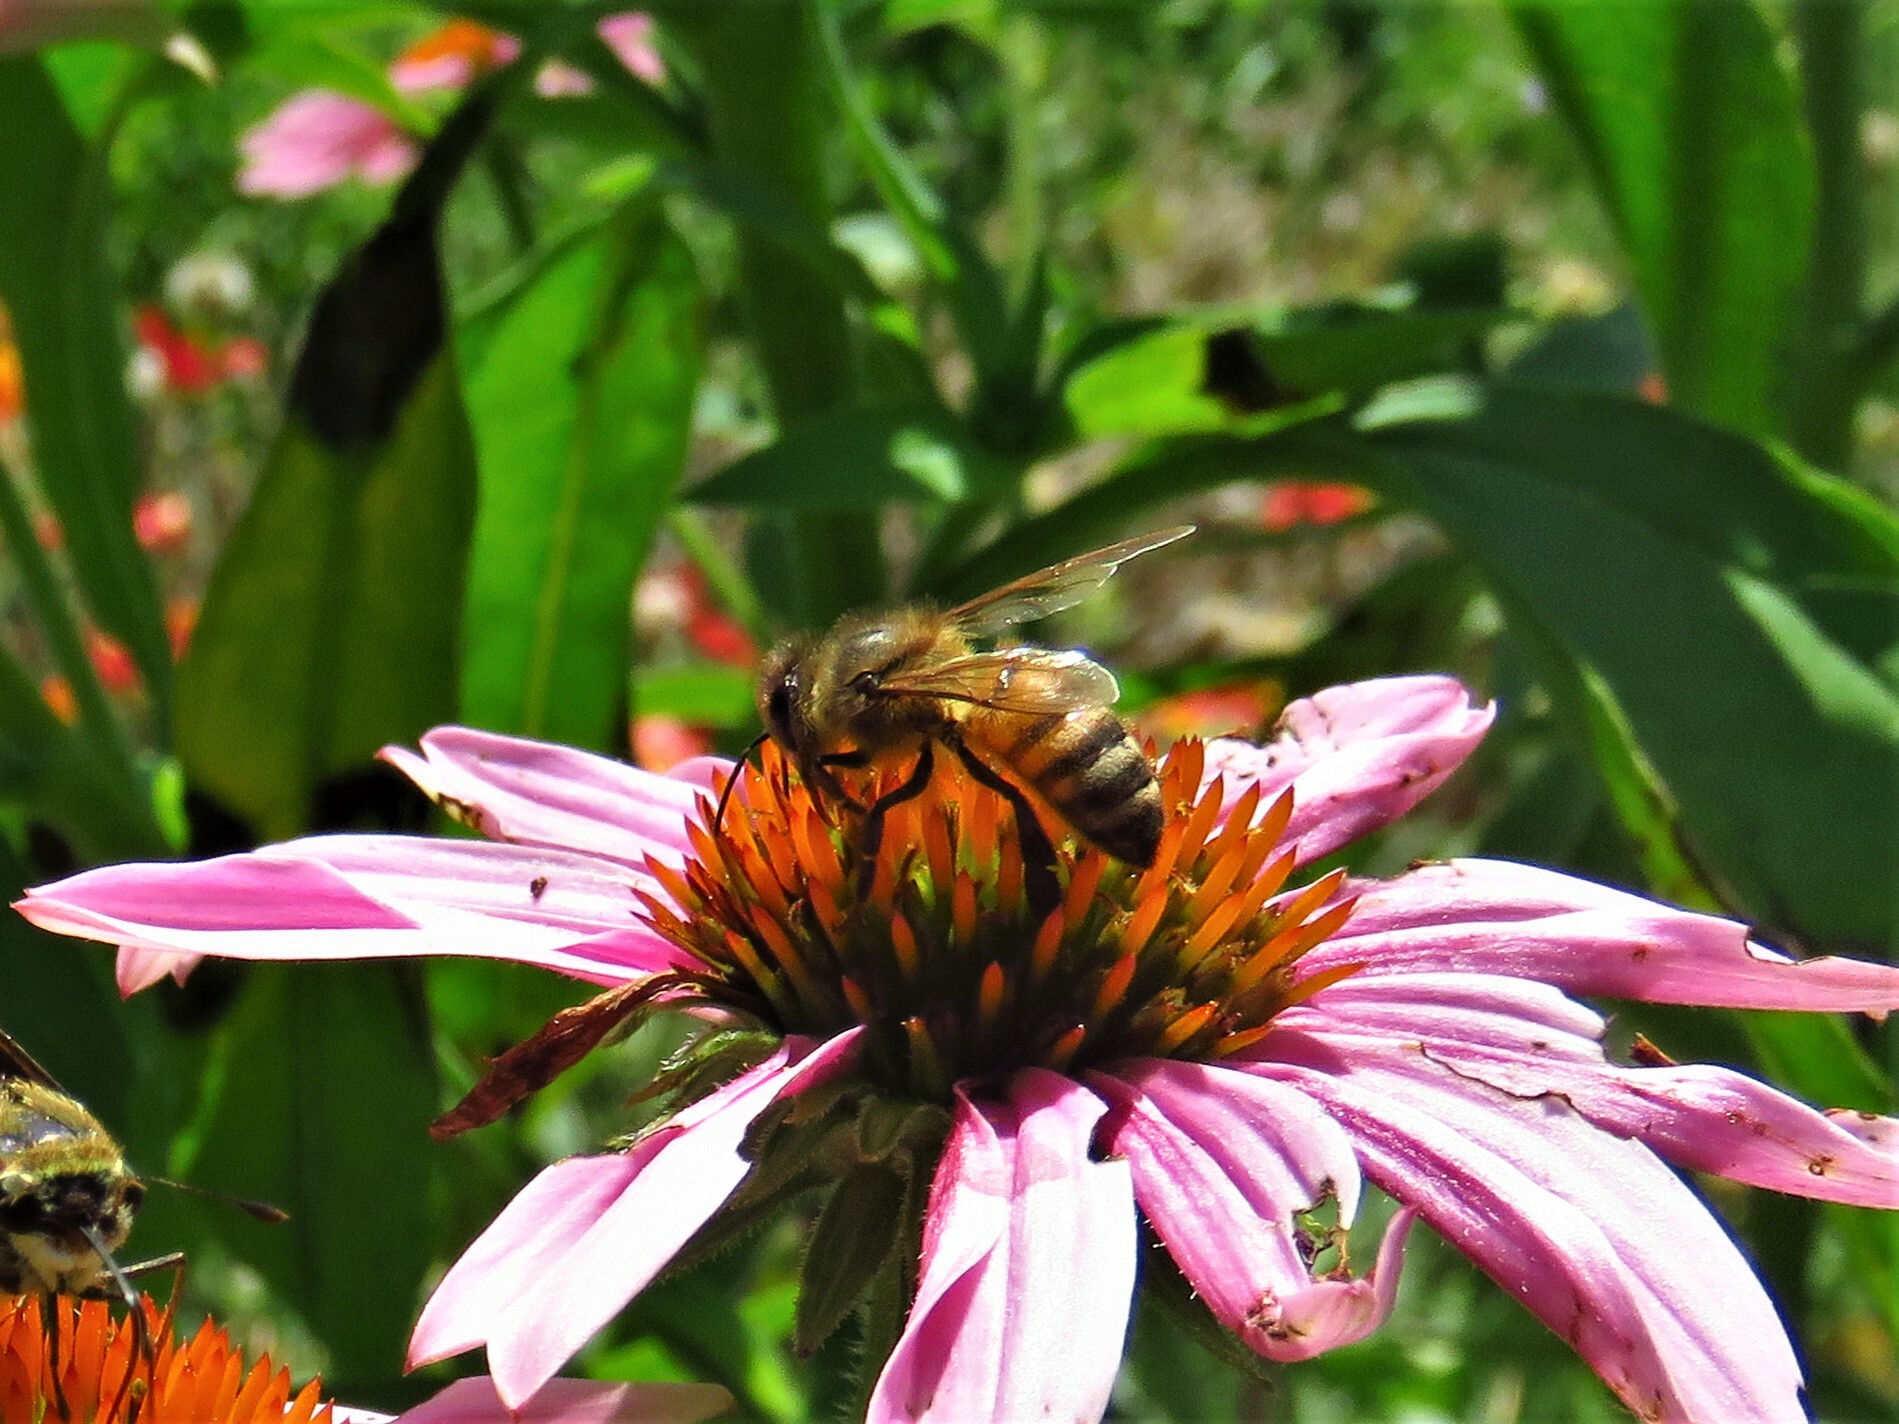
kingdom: Animalia
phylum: Arthropoda
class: Insecta
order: Hymenoptera
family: Apidae
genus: Apis
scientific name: Apis mellifera
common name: Honey bee
